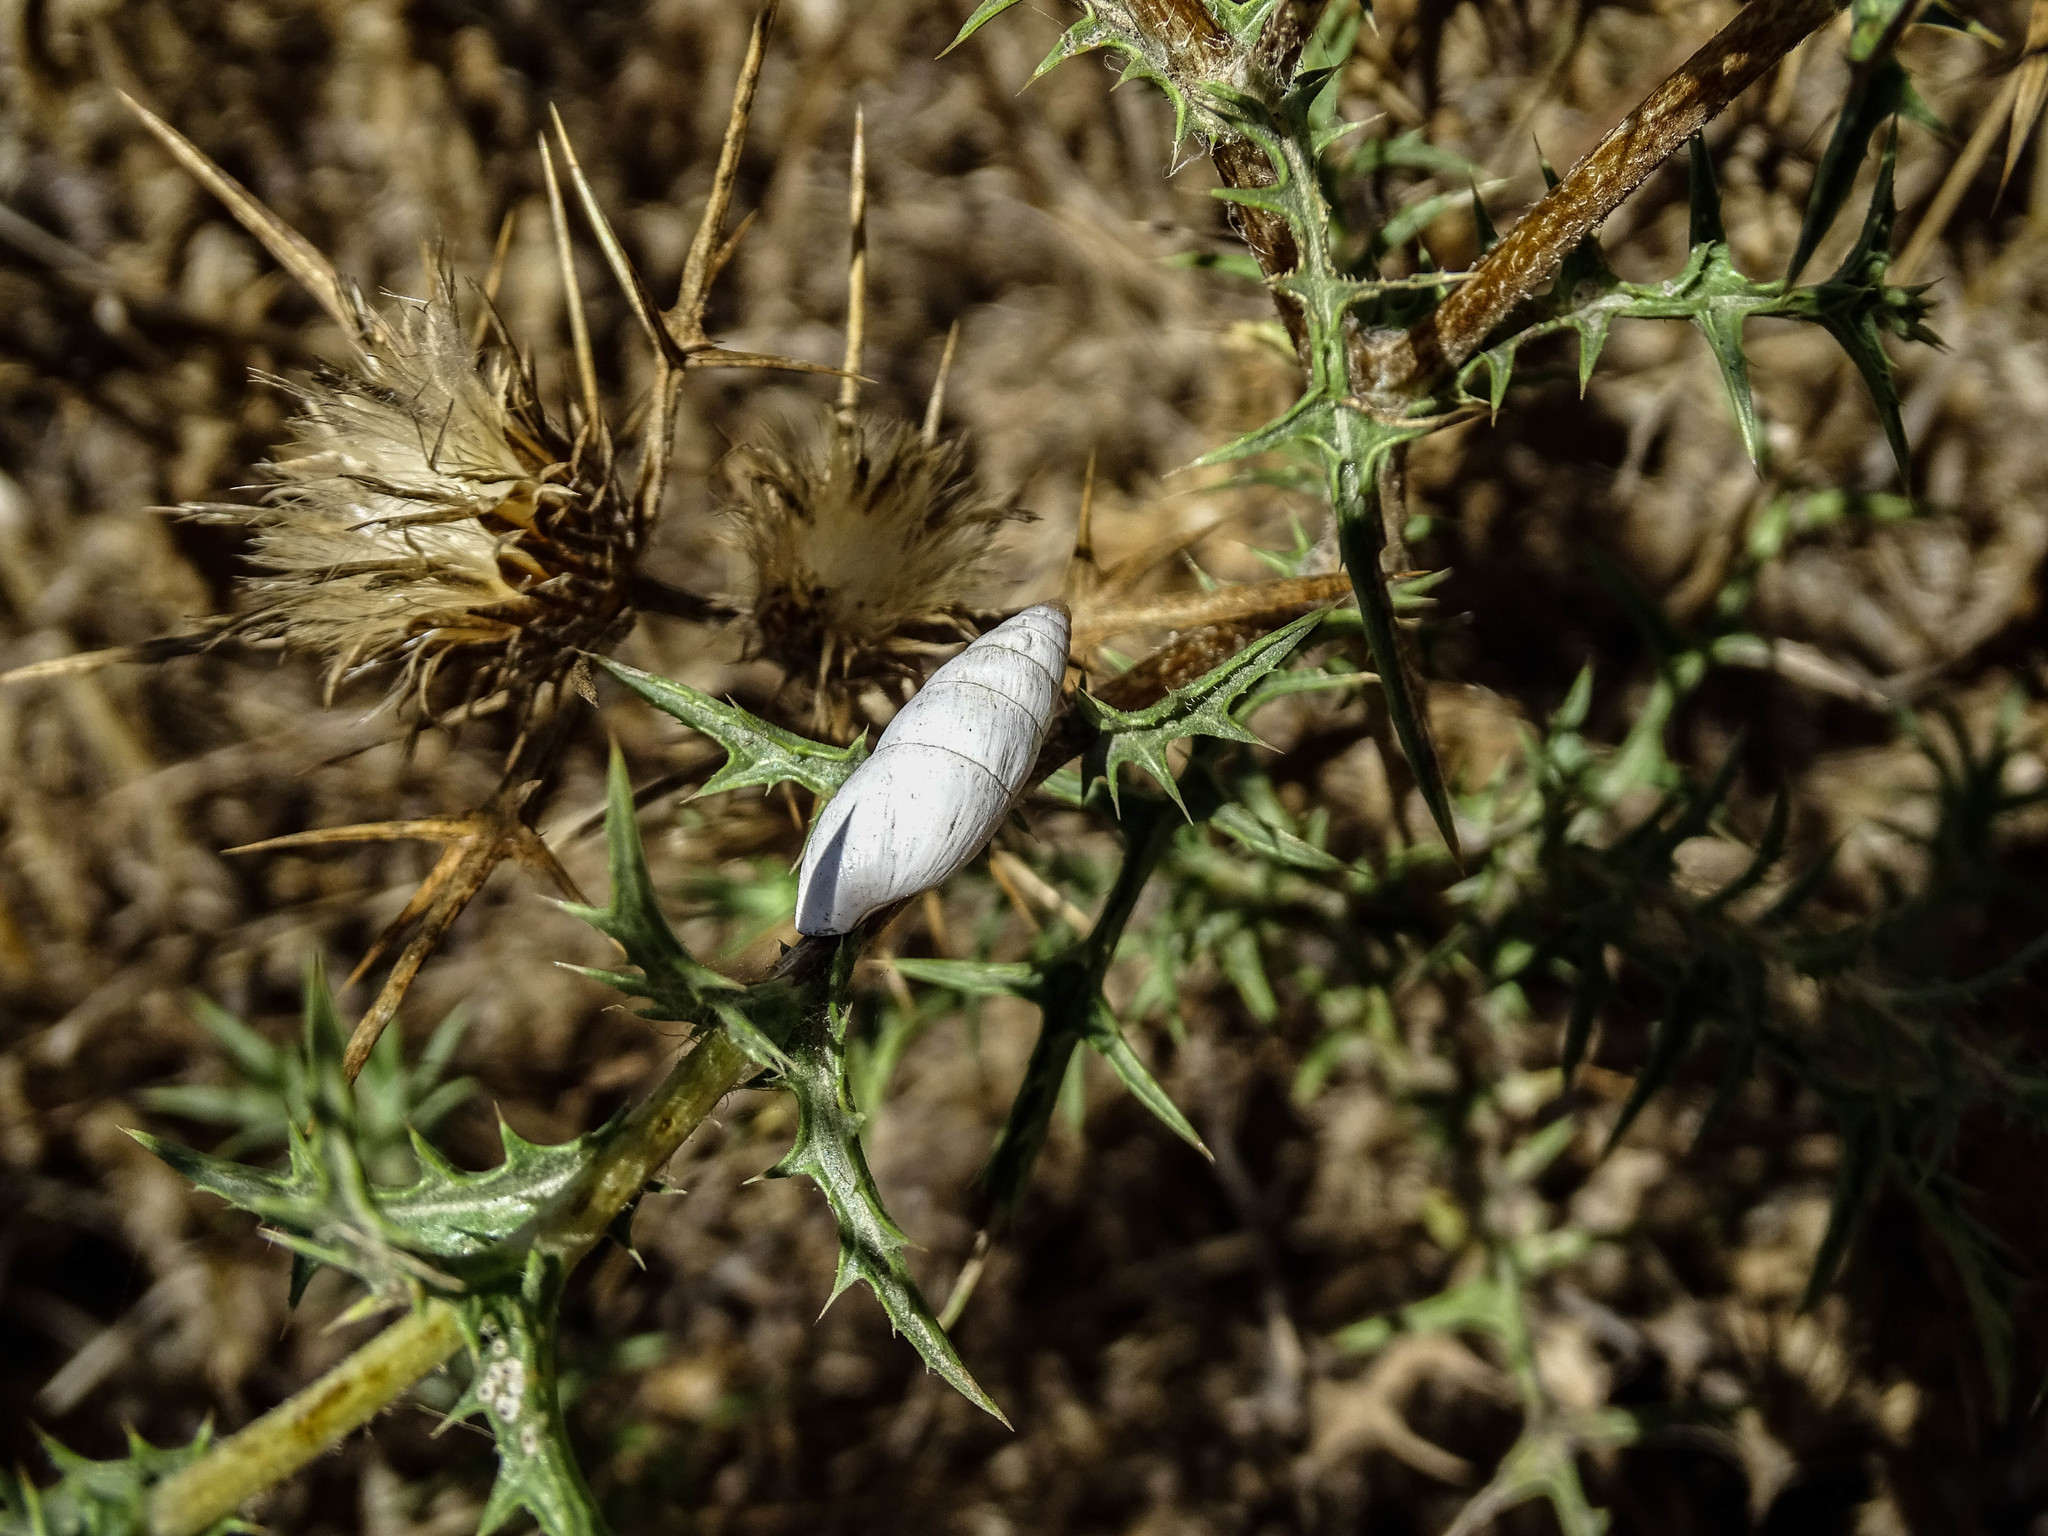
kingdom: Animalia
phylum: Mollusca
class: Gastropoda
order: Stylommatophora
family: Enidae
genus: Zebrina
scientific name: Zebrina fasciolata
